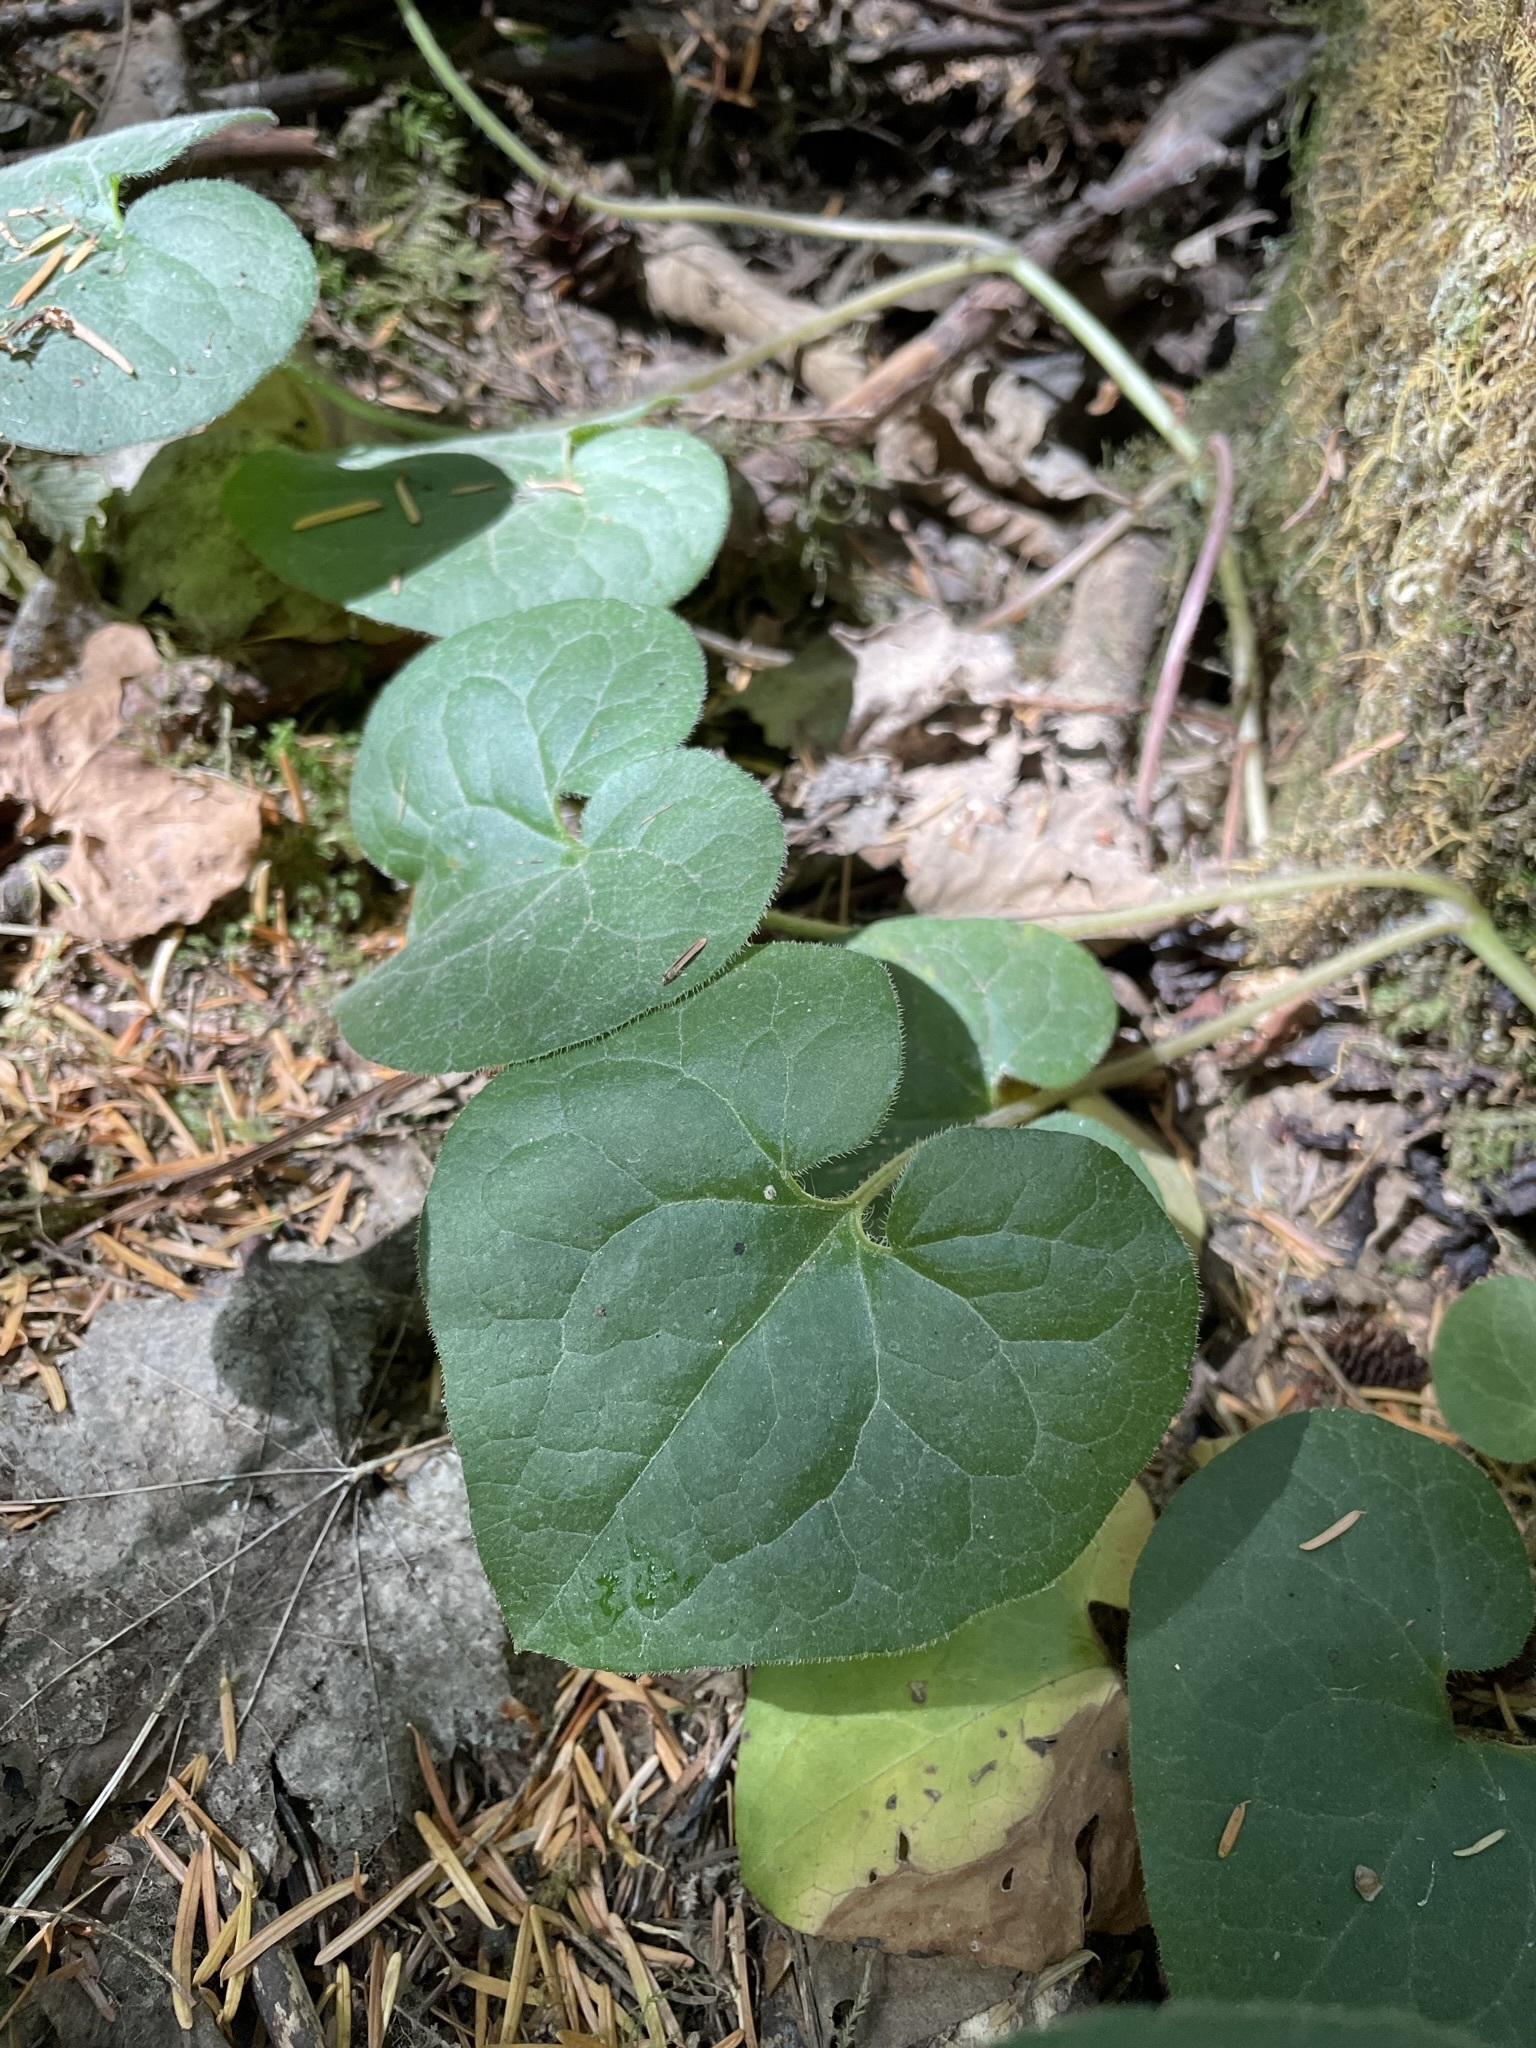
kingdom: Plantae
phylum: Tracheophyta
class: Magnoliopsida
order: Piperales
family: Aristolochiaceae
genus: Asarum
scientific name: Asarum caudatum
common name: Wild ginger
